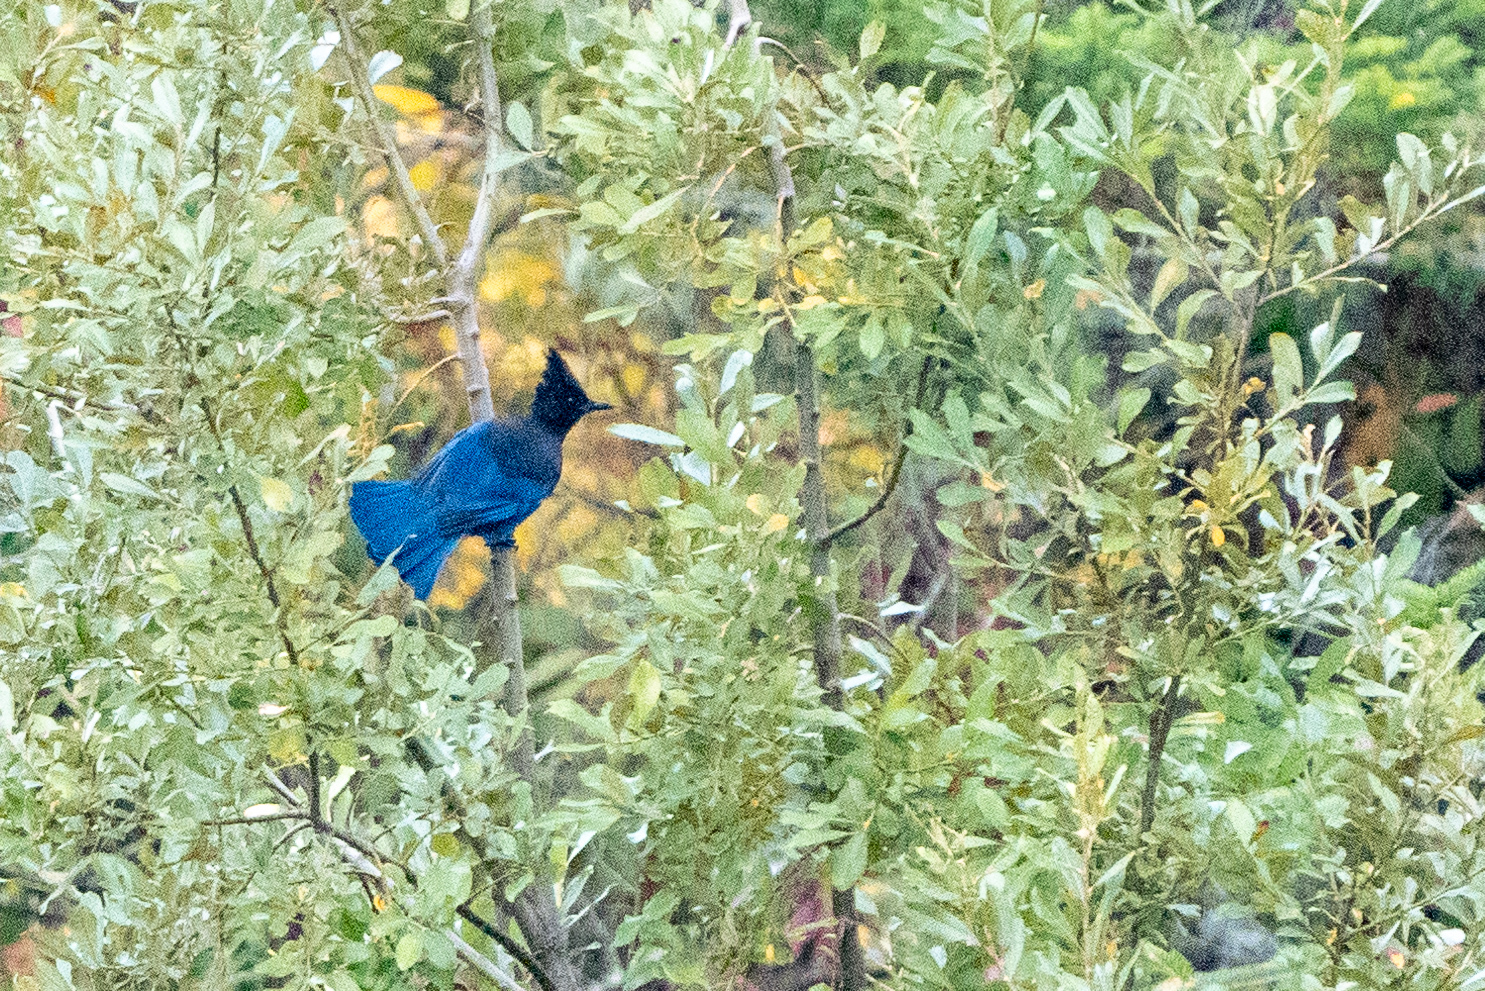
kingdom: Animalia
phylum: Chordata
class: Aves
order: Passeriformes
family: Corvidae
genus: Cyanocitta
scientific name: Cyanocitta stelleri
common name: Steller's jay
